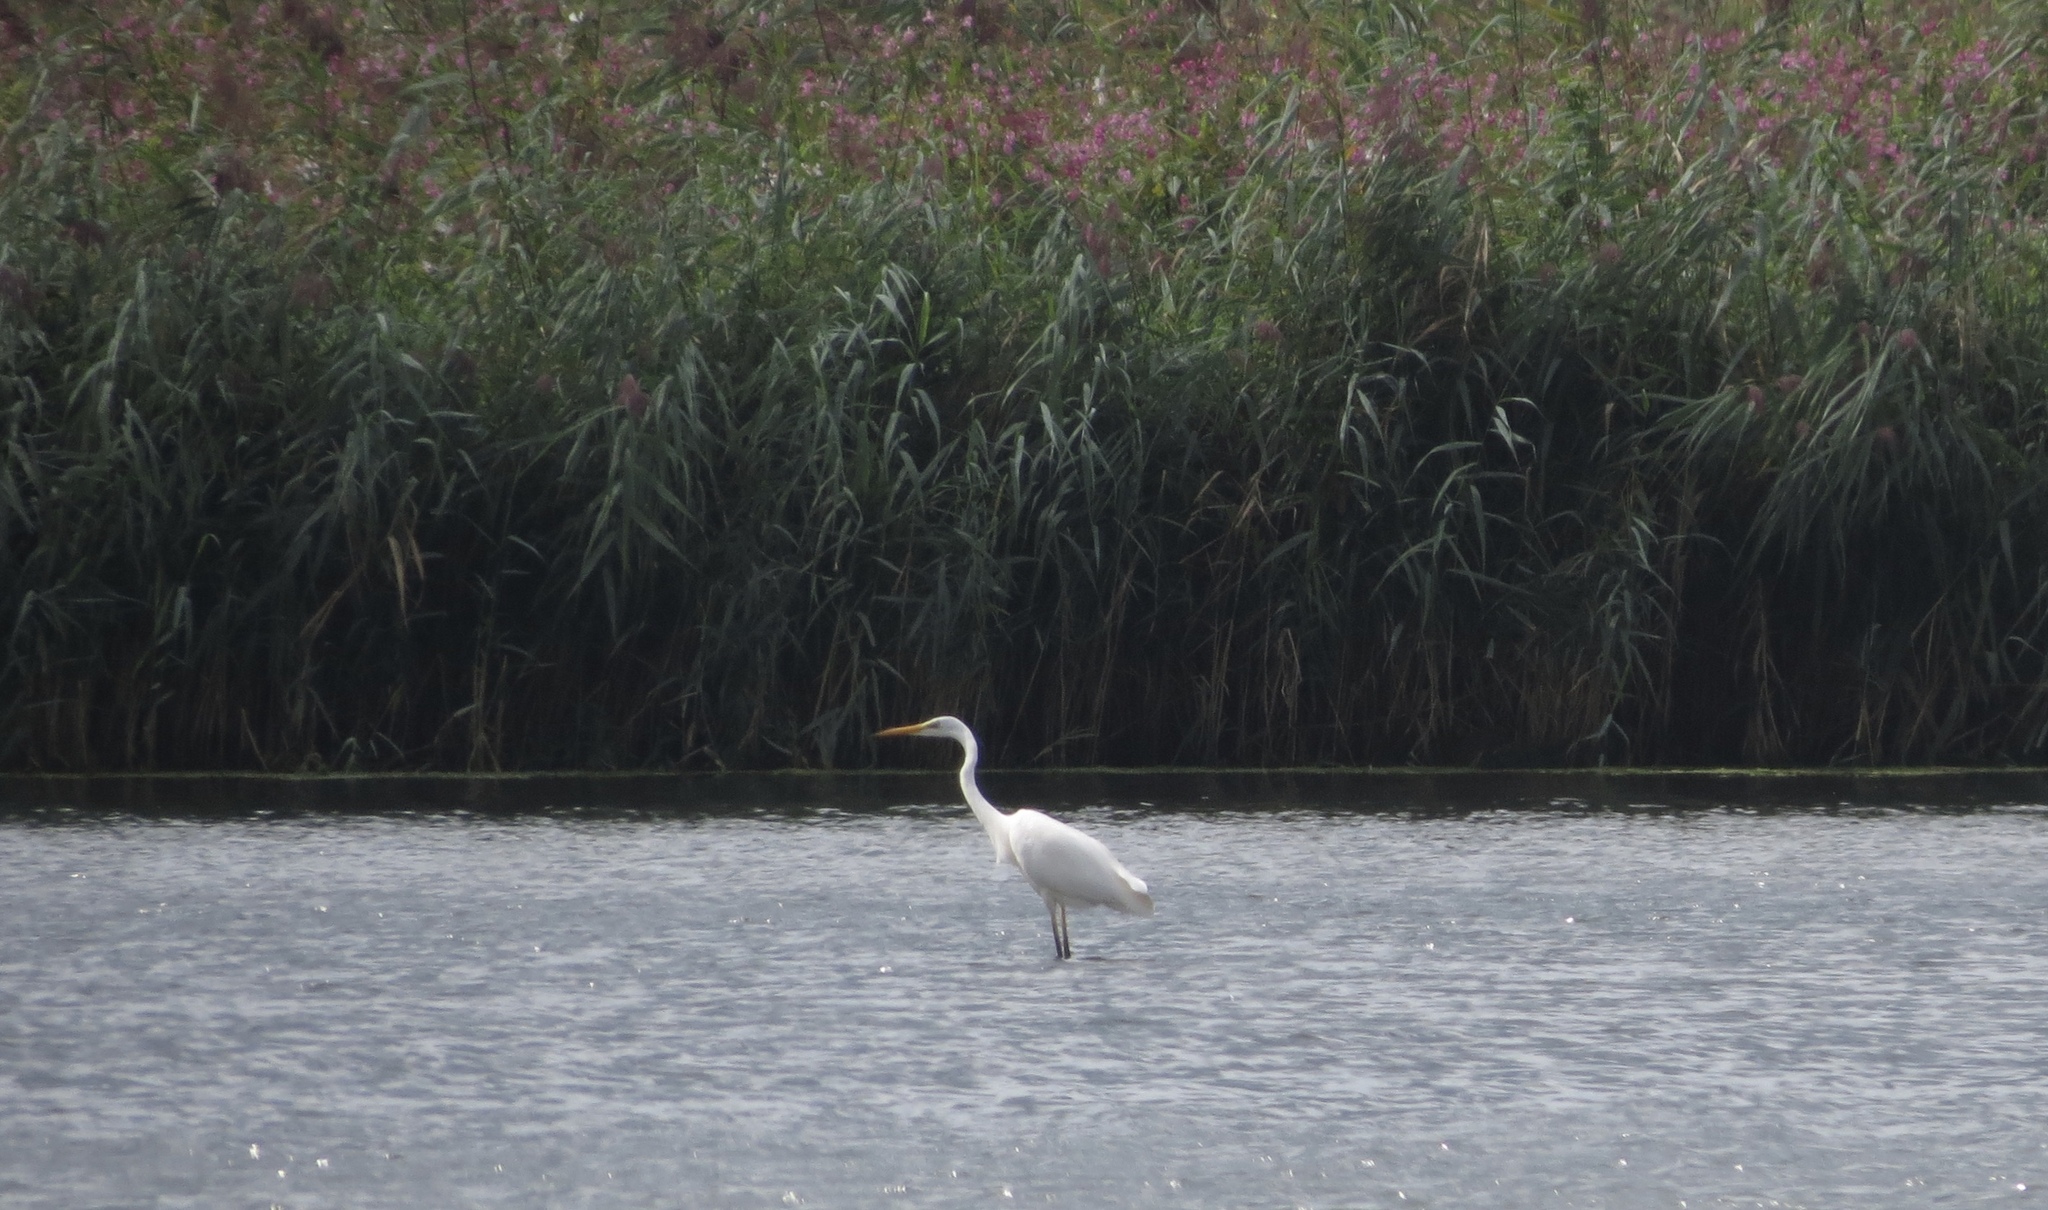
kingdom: Animalia
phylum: Chordata
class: Aves
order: Pelecaniformes
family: Ardeidae
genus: Ardea
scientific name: Ardea alba
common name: Great egret
